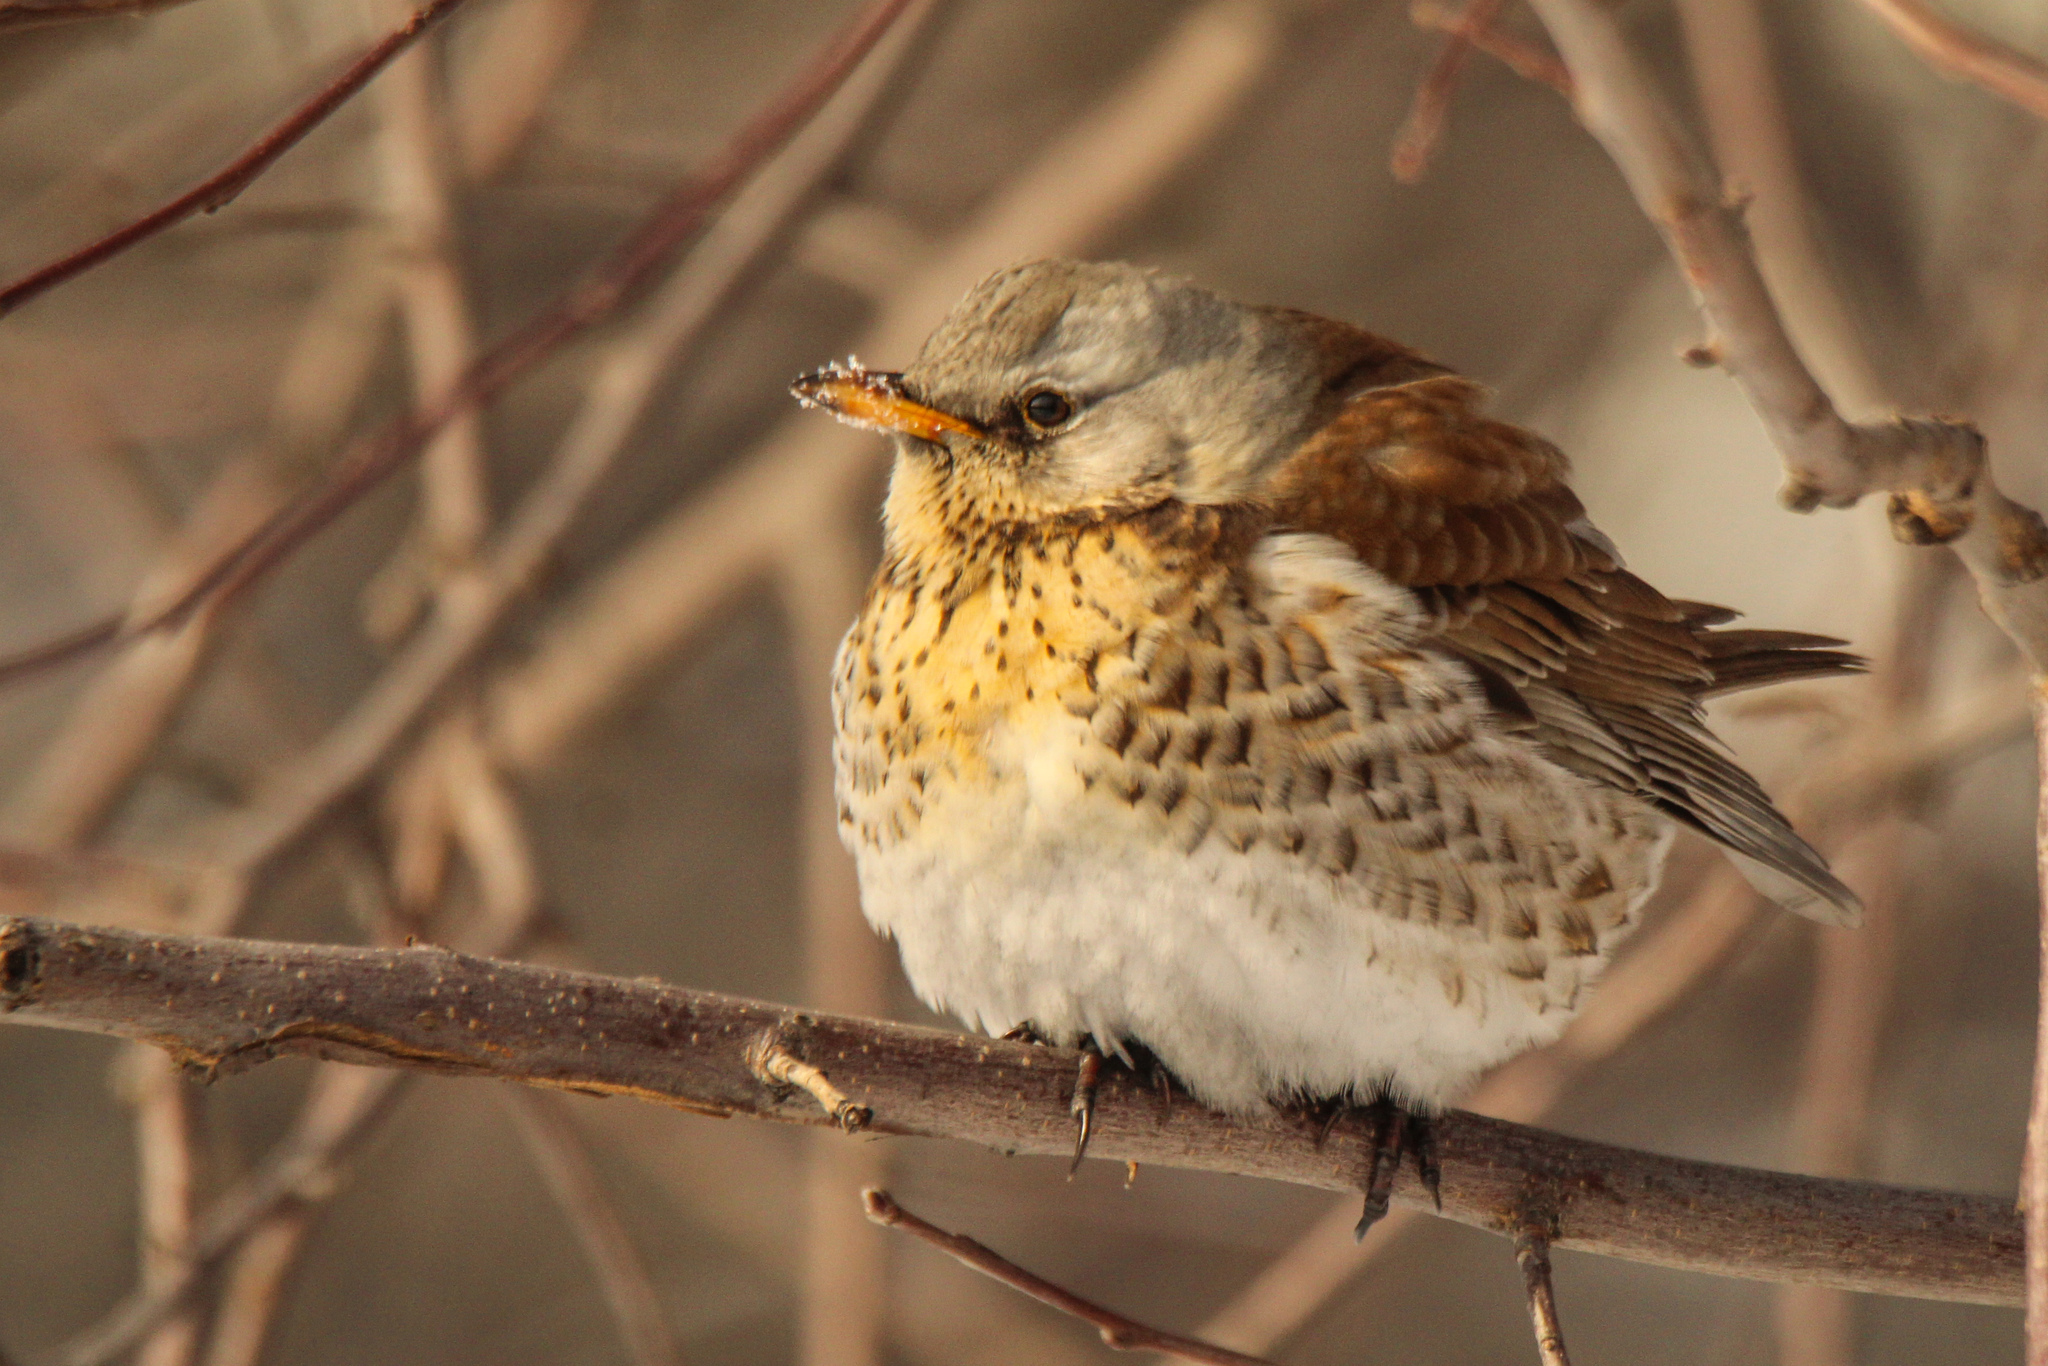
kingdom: Animalia
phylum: Chordata
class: Aves
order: Passeriformes
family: Turdidae
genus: Turdus
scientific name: Turdus pilaris
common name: Fieldfare
